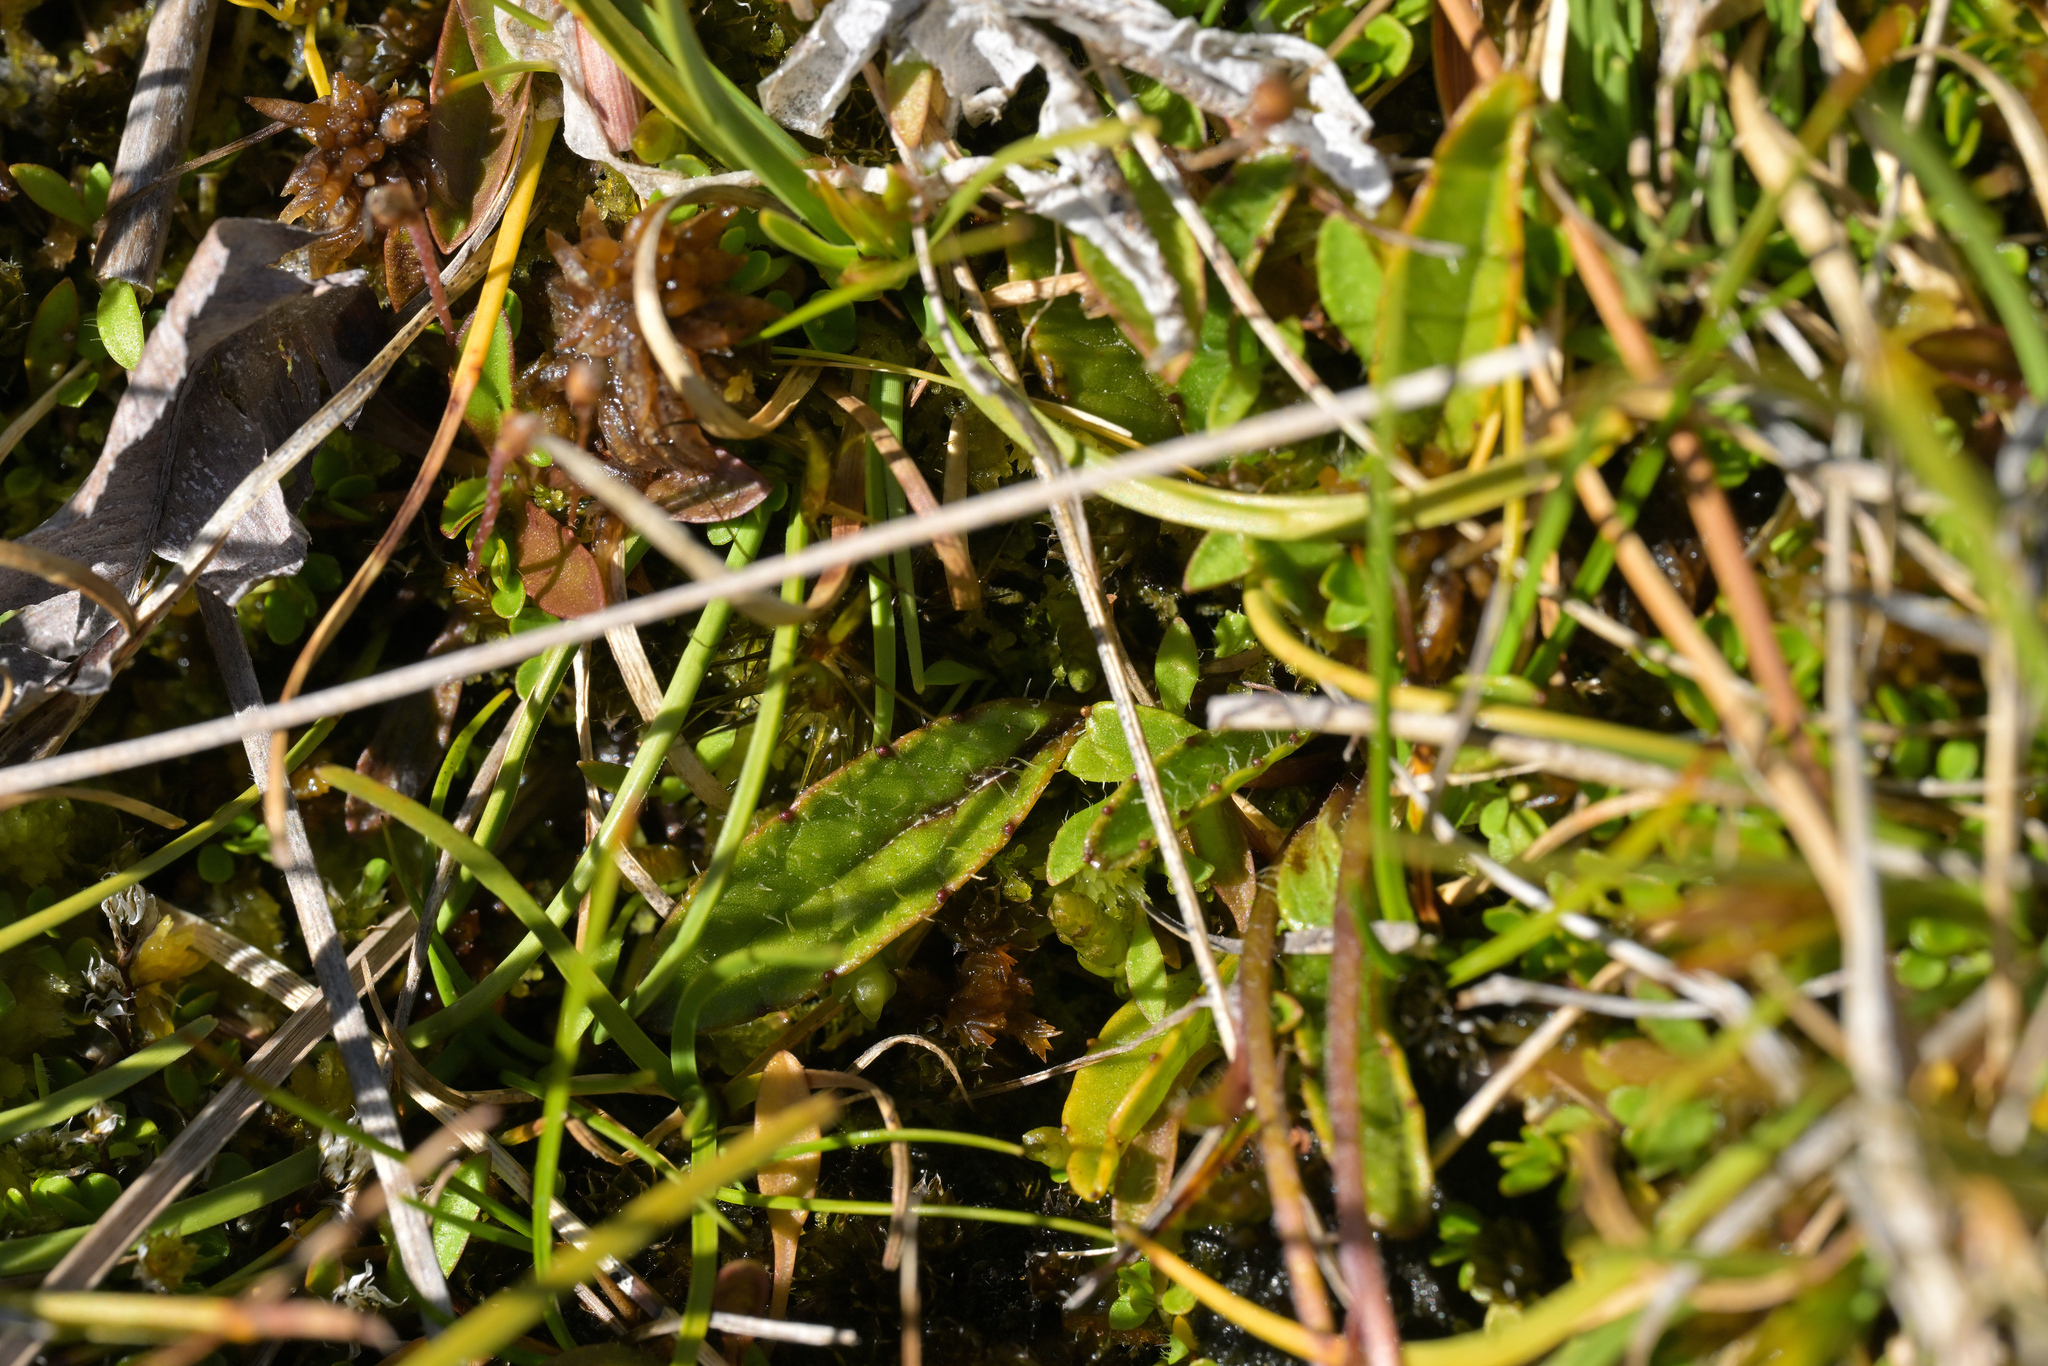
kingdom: Plantae
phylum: Tracheophyta
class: Magnoliopsida
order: Asterales
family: Asteraceae
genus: Brachyglottis
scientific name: Brachyglottis bellidioides
